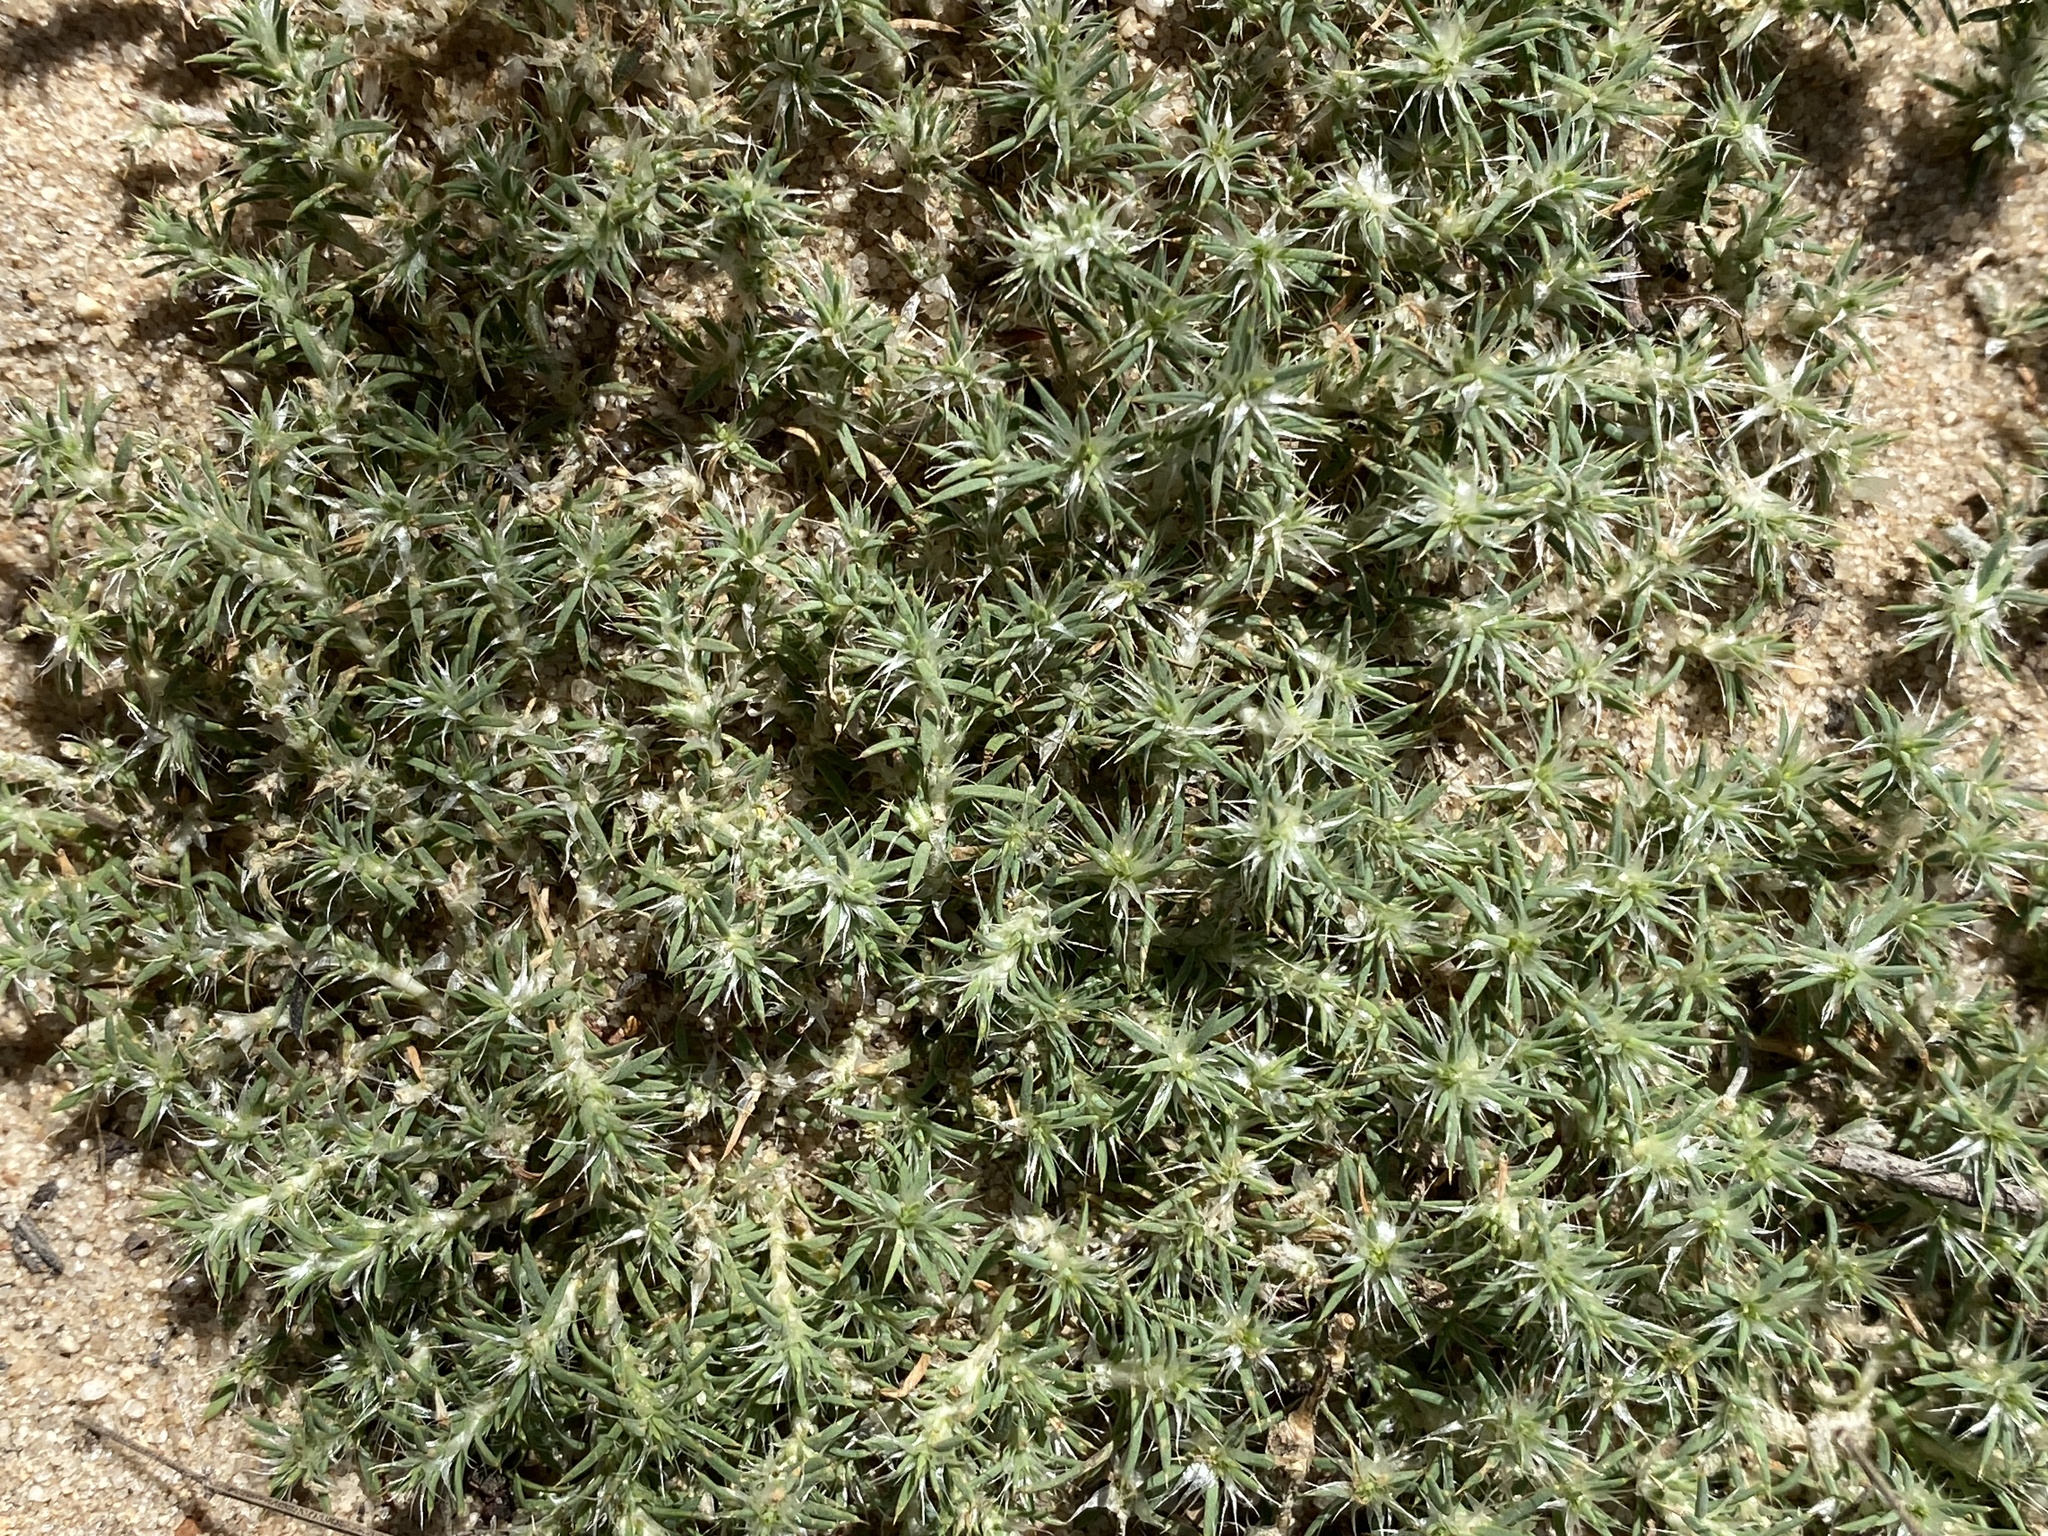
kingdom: Plantae
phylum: Tracheophyta
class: Magnoliopsida
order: Caryophyllales
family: Caryophyllaceae
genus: Cardionema
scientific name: Cardionema ramosissima
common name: Sandcarpet
